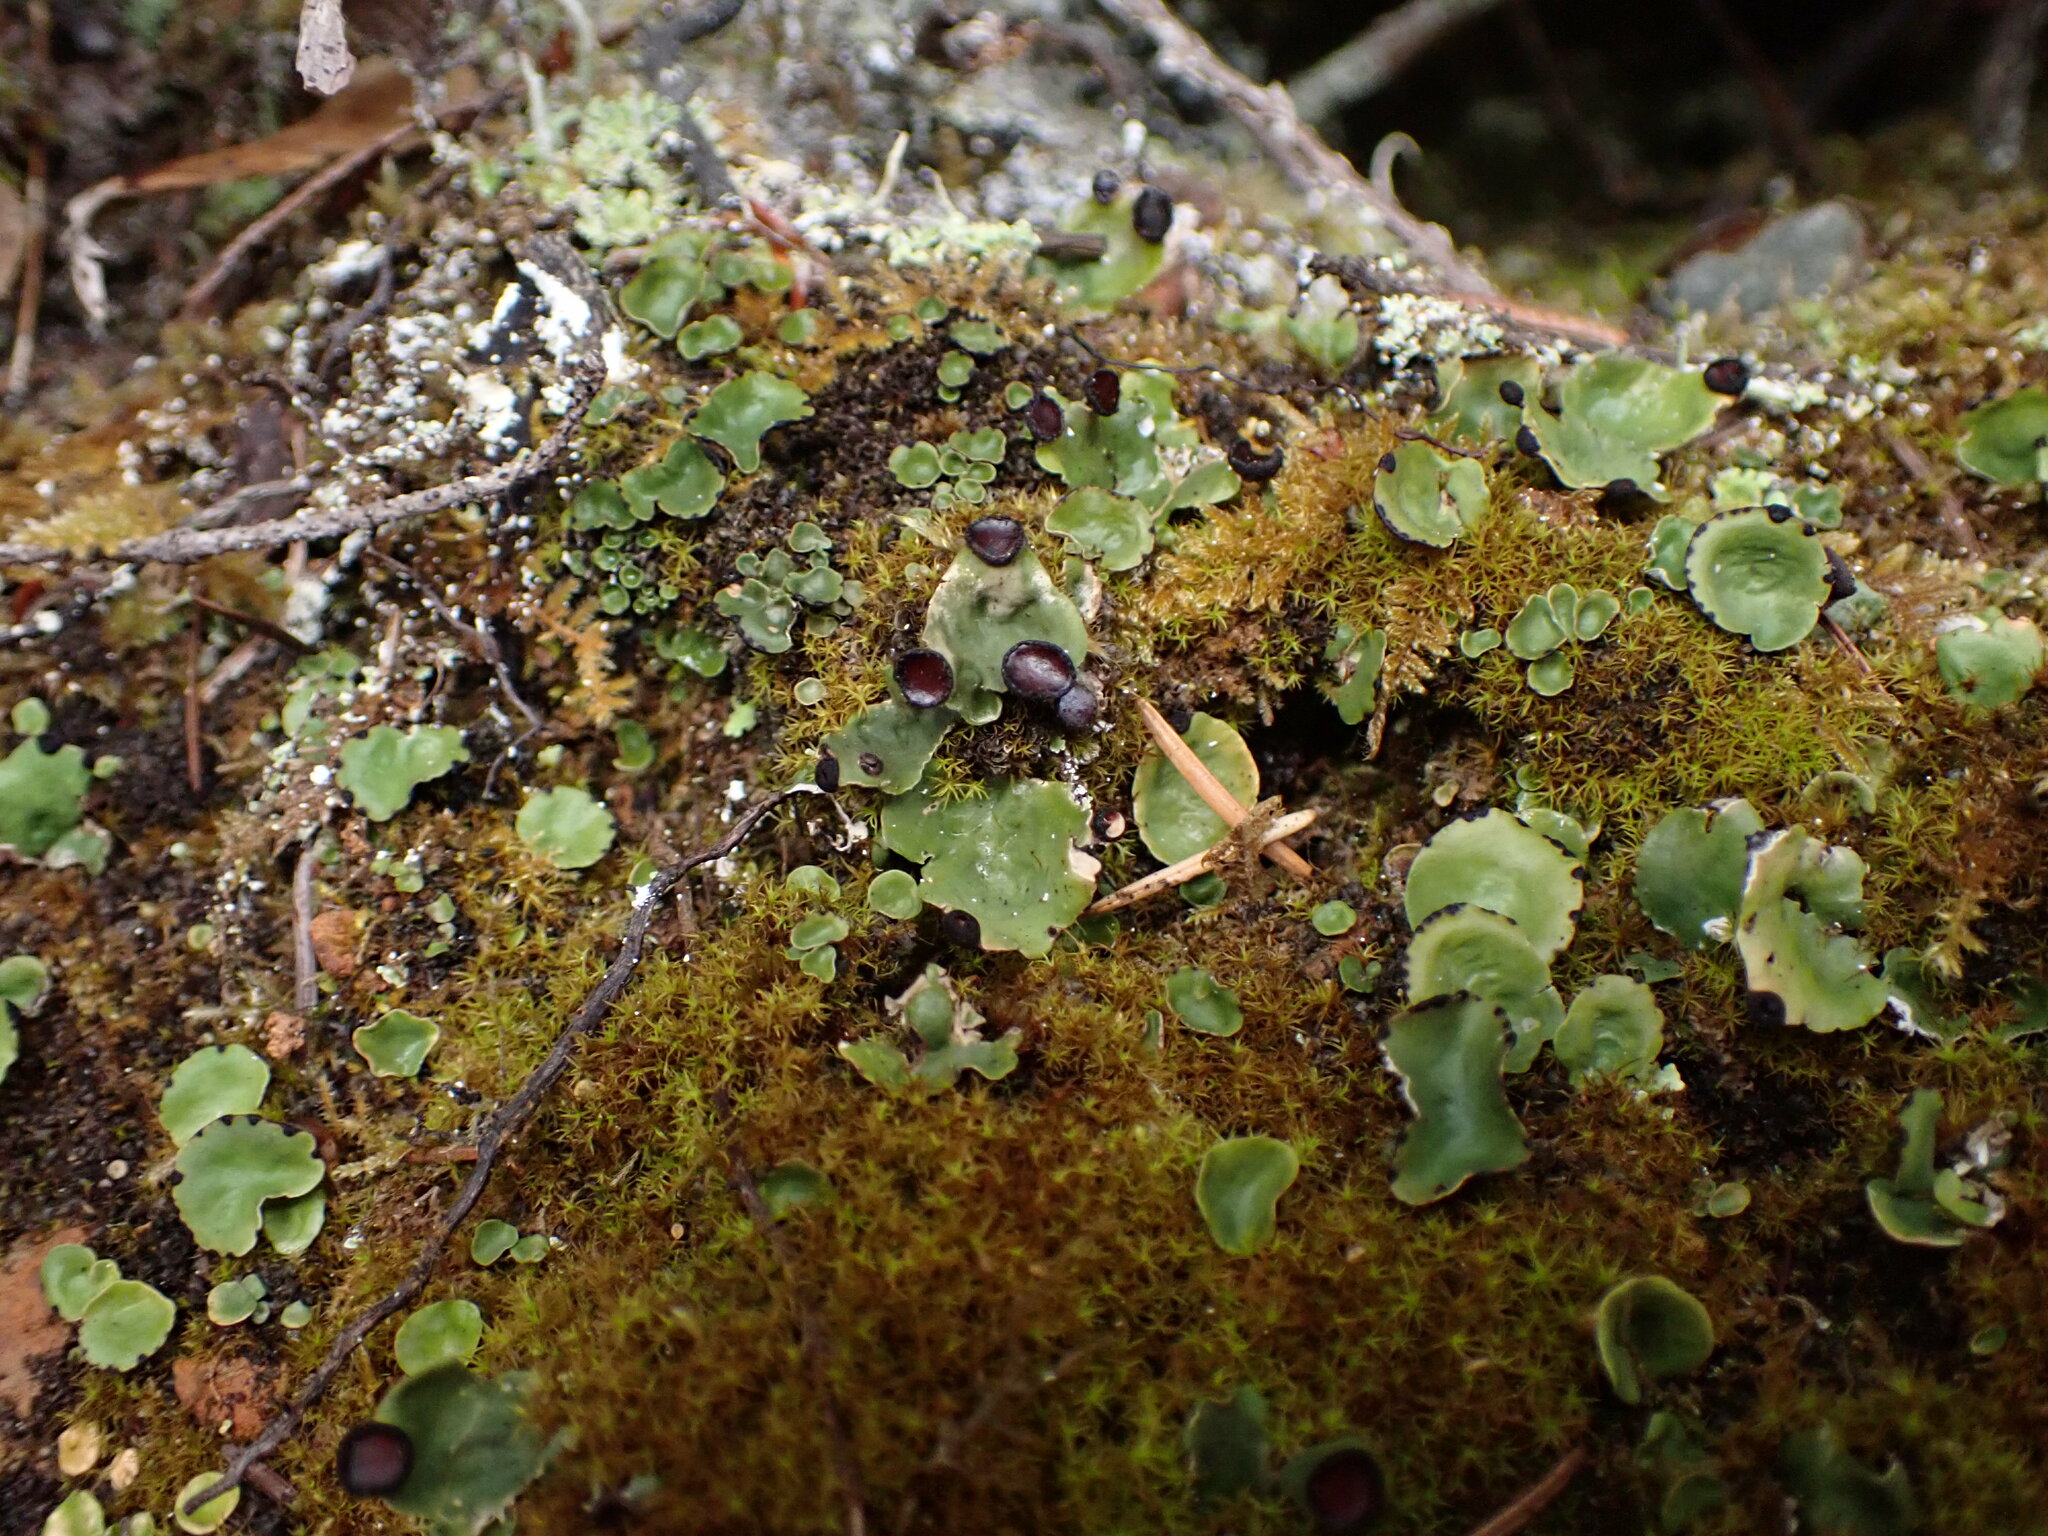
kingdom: Fungi
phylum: Ascomycota
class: Lecanoromycetes
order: Peltigerales
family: Peltigeraceae
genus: Peltigera
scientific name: Peltigera venosa
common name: Pixie gowns lichen
